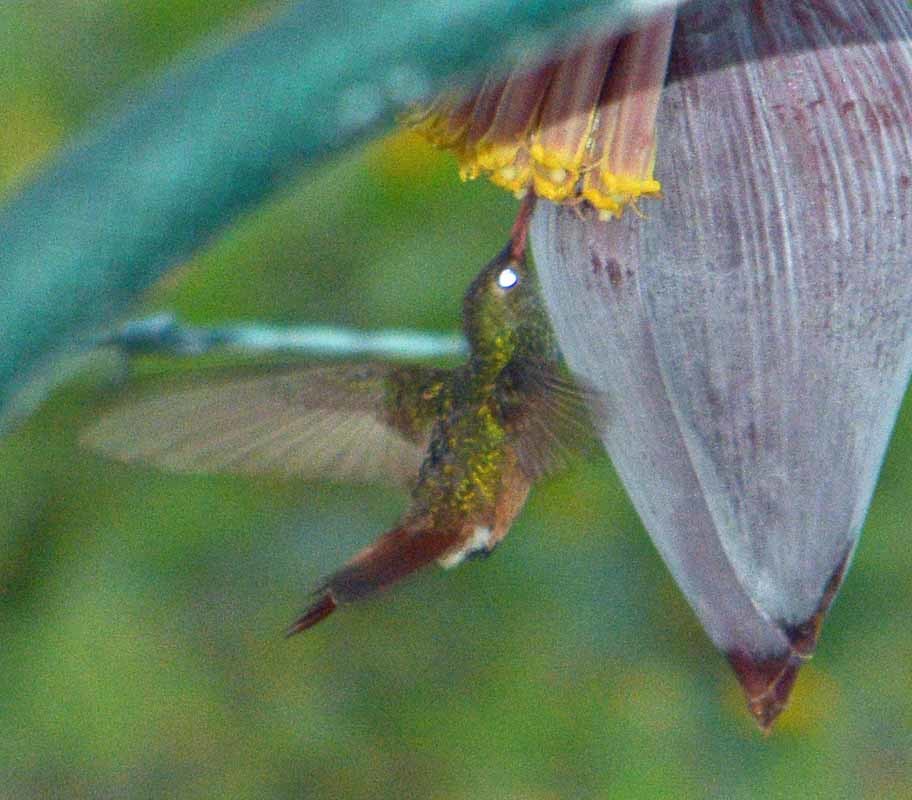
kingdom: Animalia
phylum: Chordata
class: Aves
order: Apodiformes
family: Trochilidae
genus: Amazilia
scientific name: Amazilia yucatanensis
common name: Buff-bellied hummingbird
